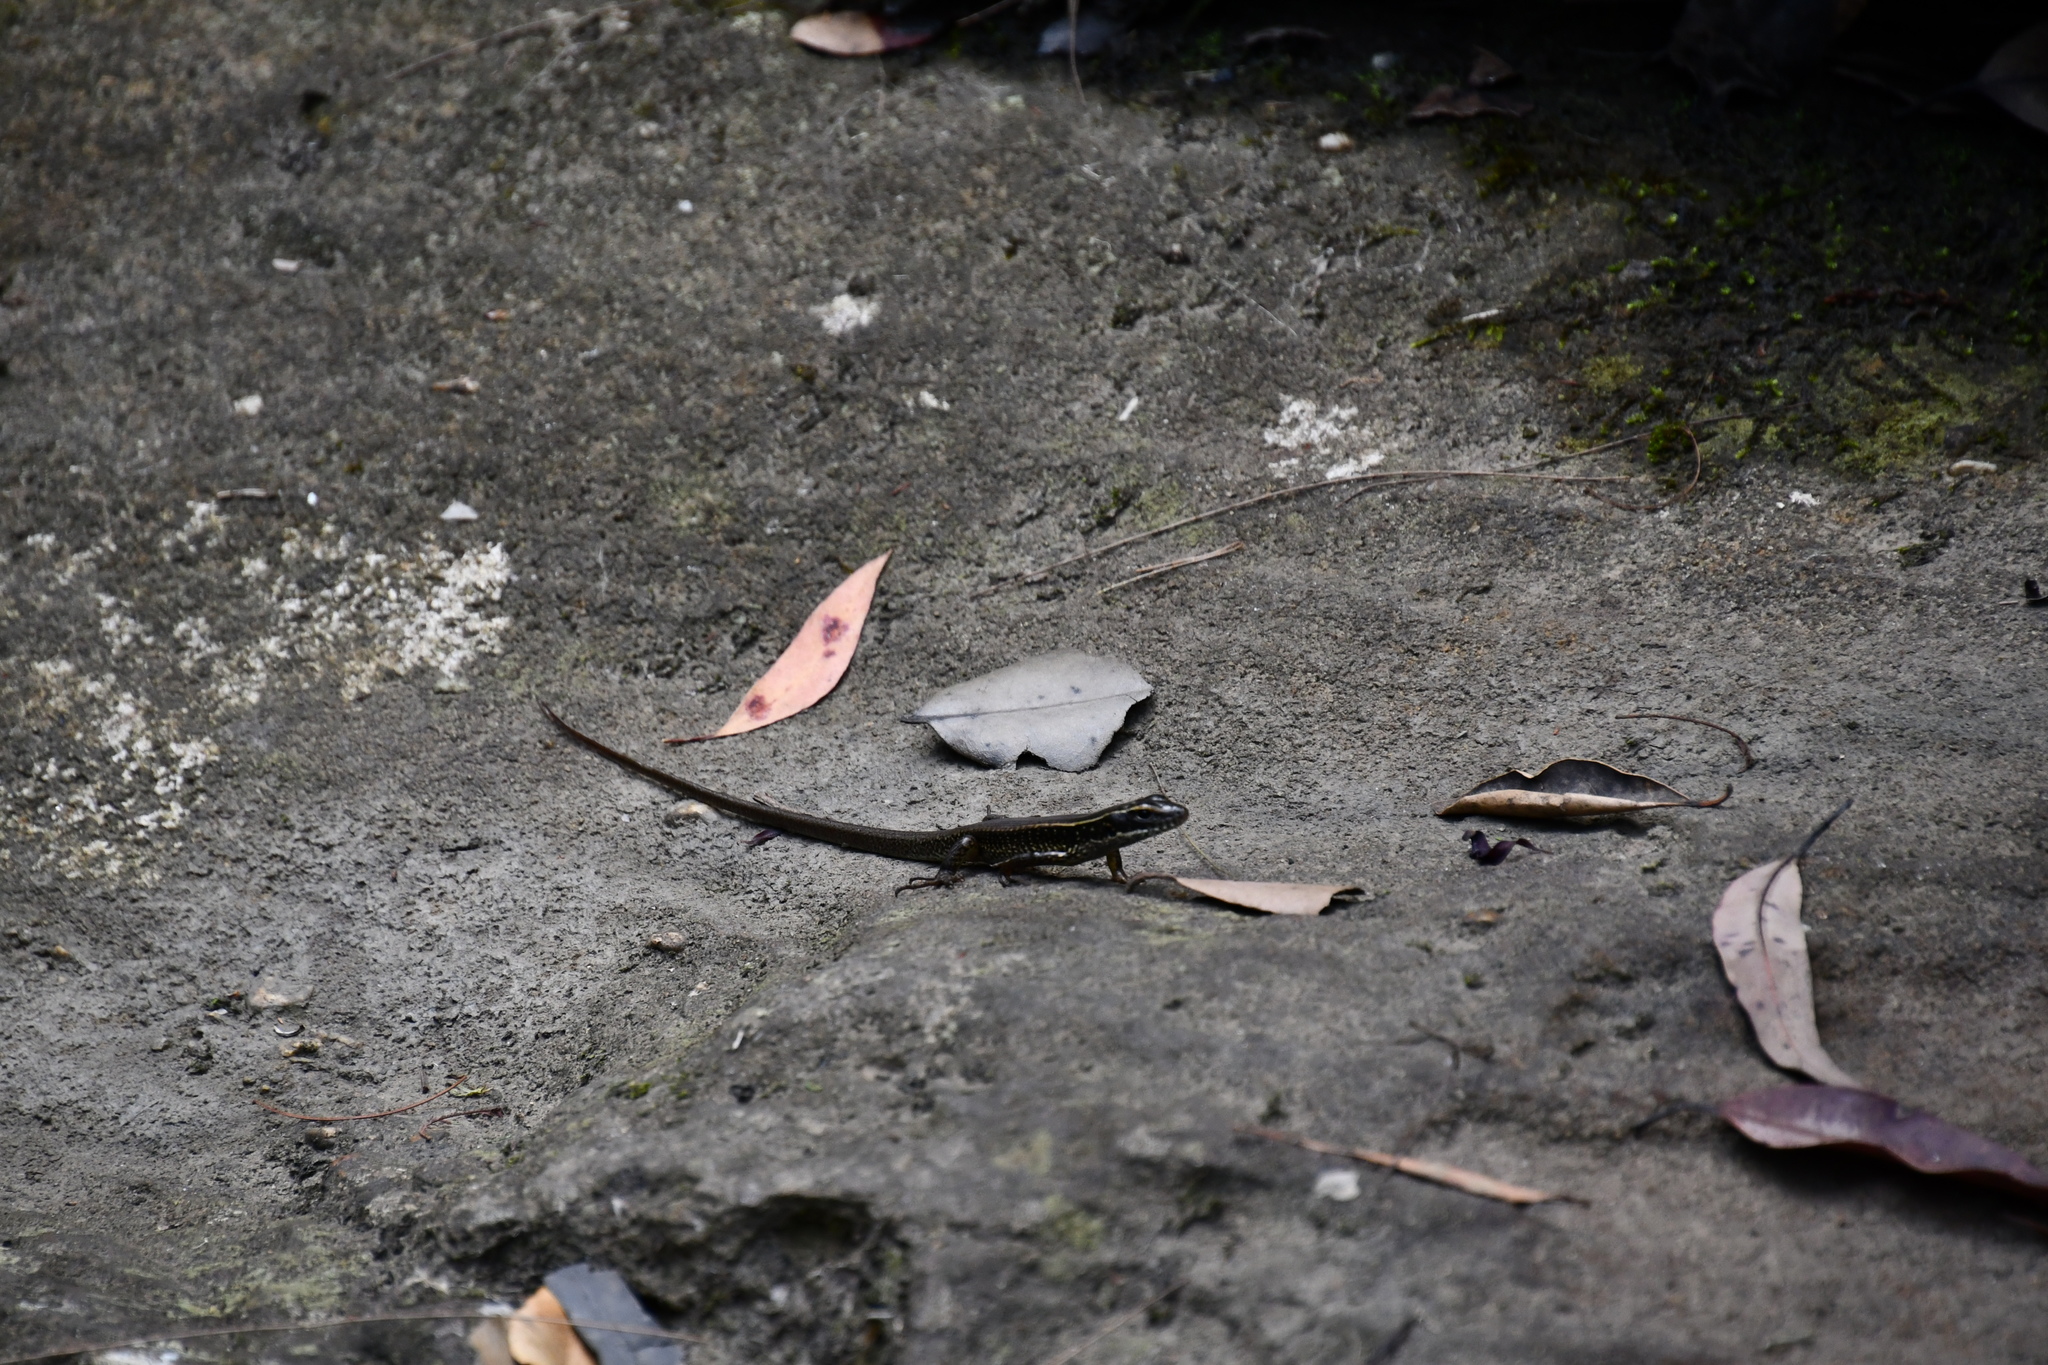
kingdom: Animalia
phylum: Chordata
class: Squamata
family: Scincidae
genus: Eulamprus
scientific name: Eulamprus quoyii
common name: Eastern water skink
